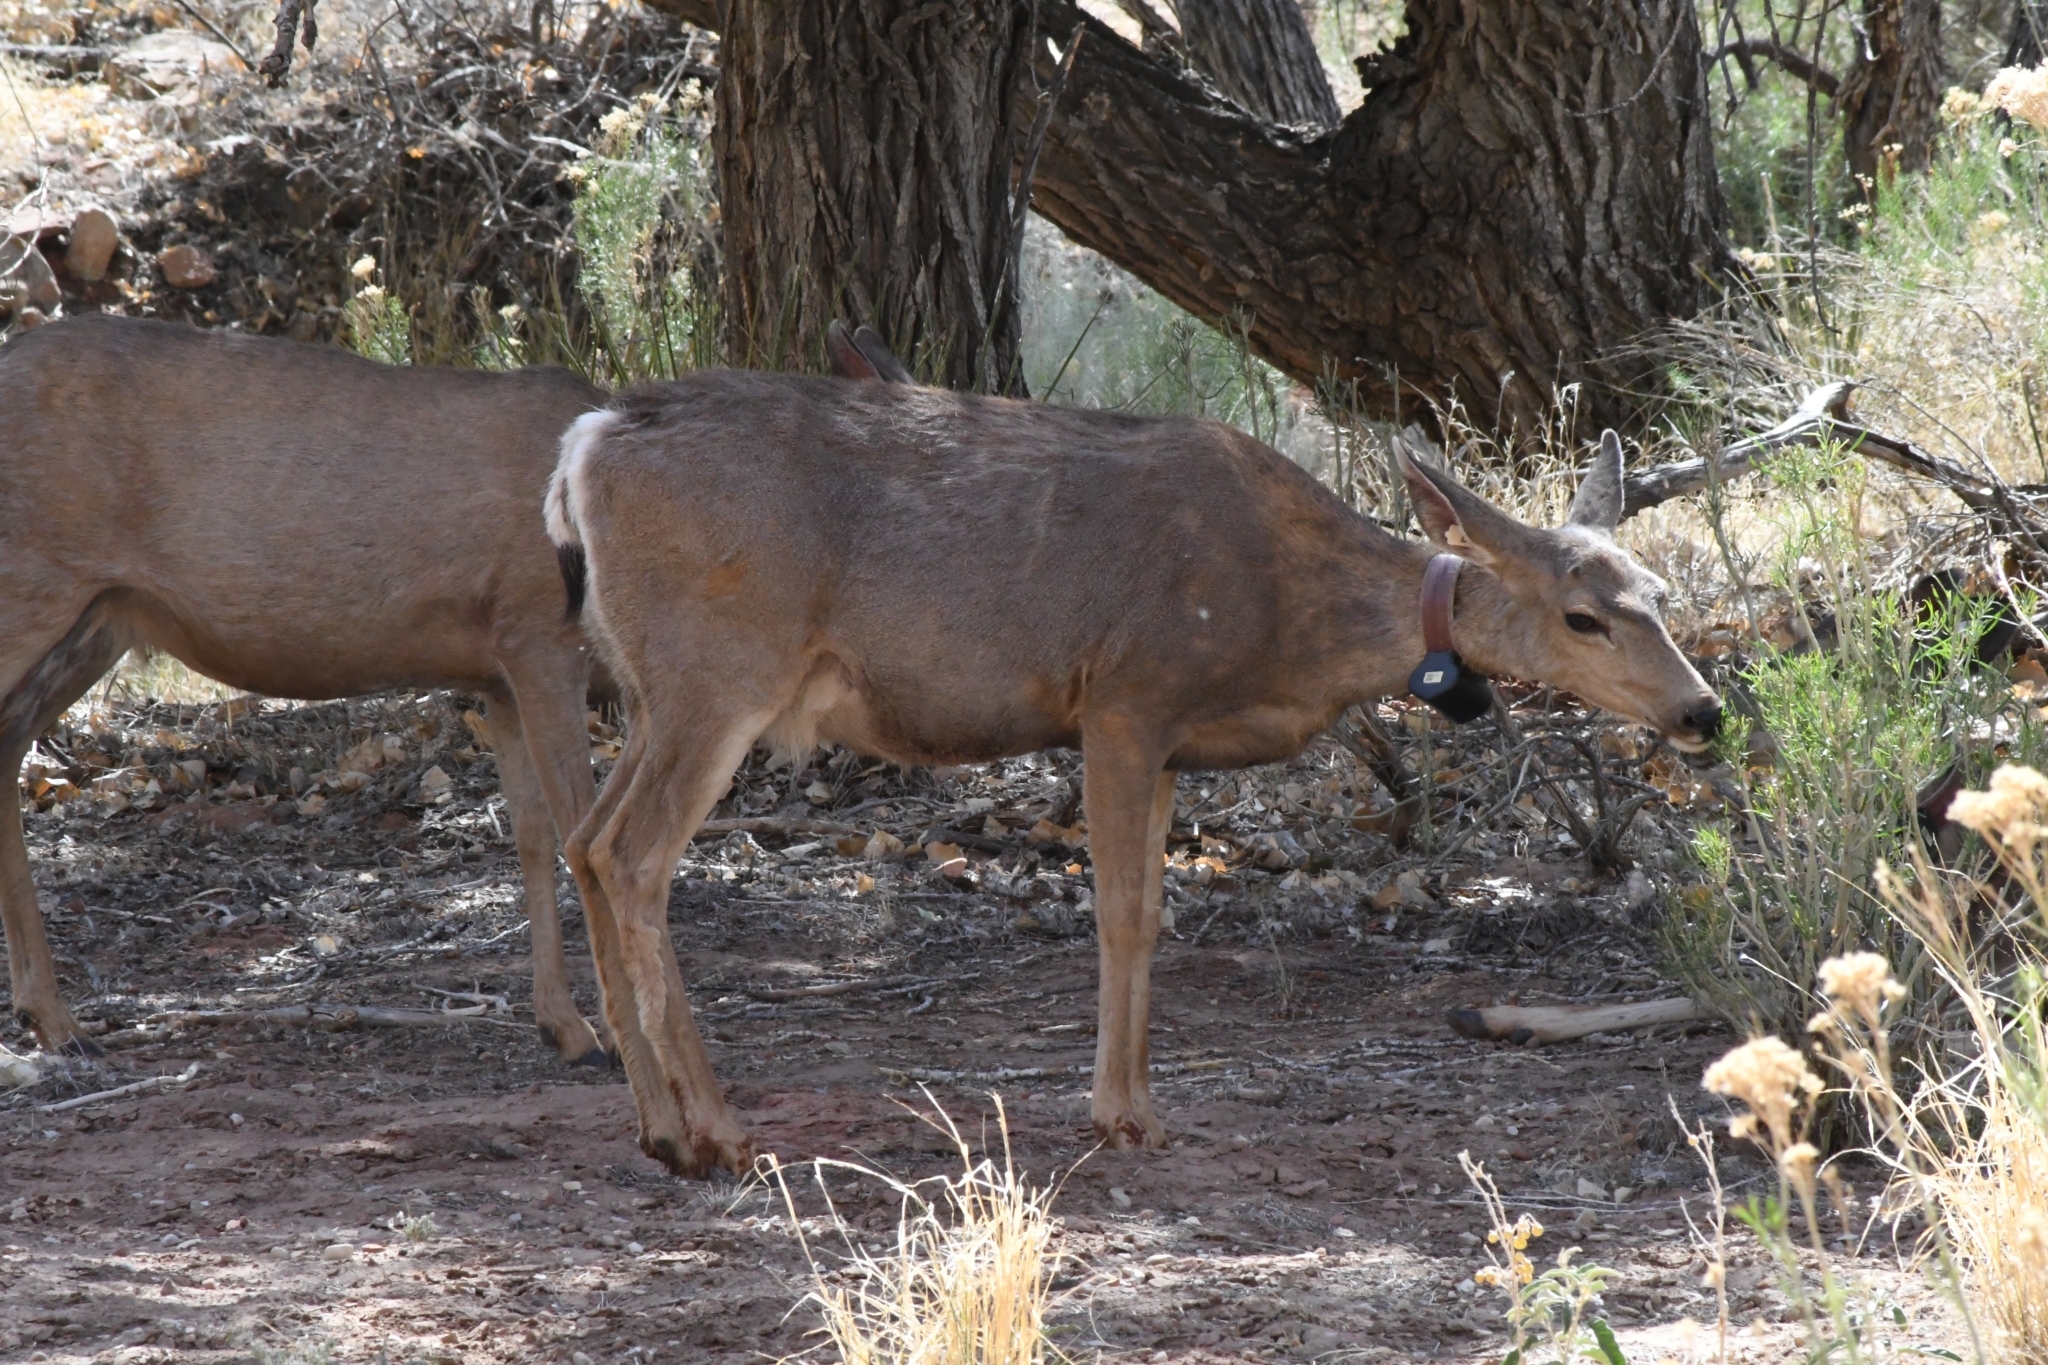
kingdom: Animalia
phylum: Chordata
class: Mammalia
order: Artiodactyla
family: Cervidae
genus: Odocoileus
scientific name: Odocoileus hemionus
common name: Mule deer
